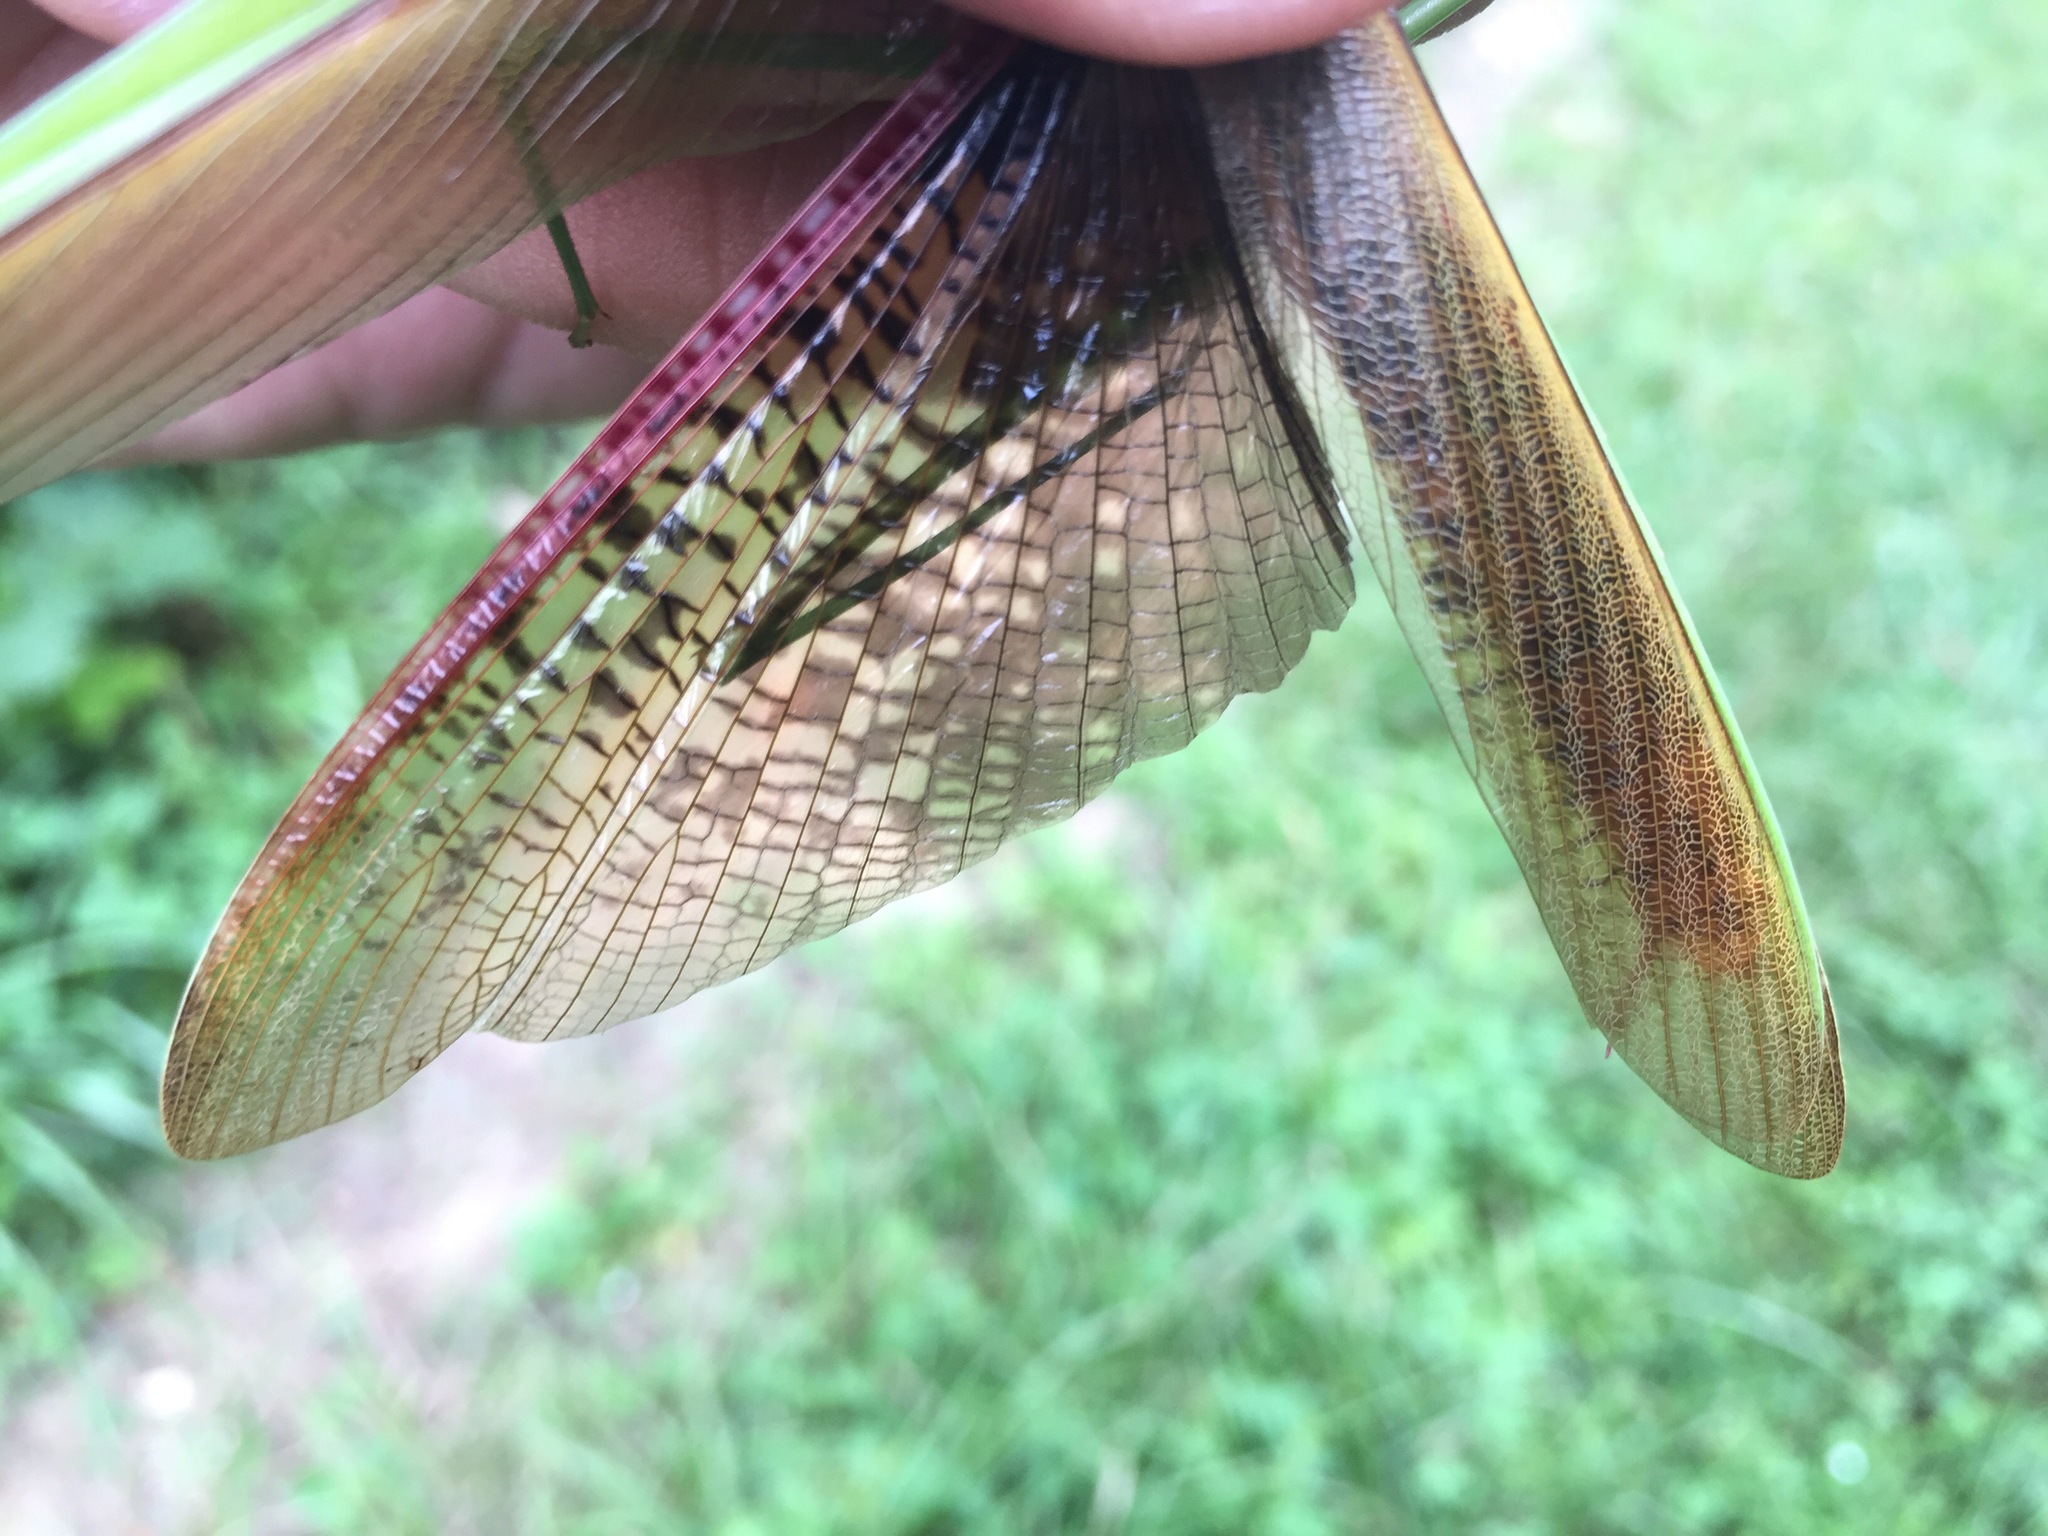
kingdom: Animalia
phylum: Arthropoda
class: Insecta
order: Mantodea
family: Mantidae
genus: Tenodera
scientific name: Tenodera sinensis
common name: Chinese mantis
